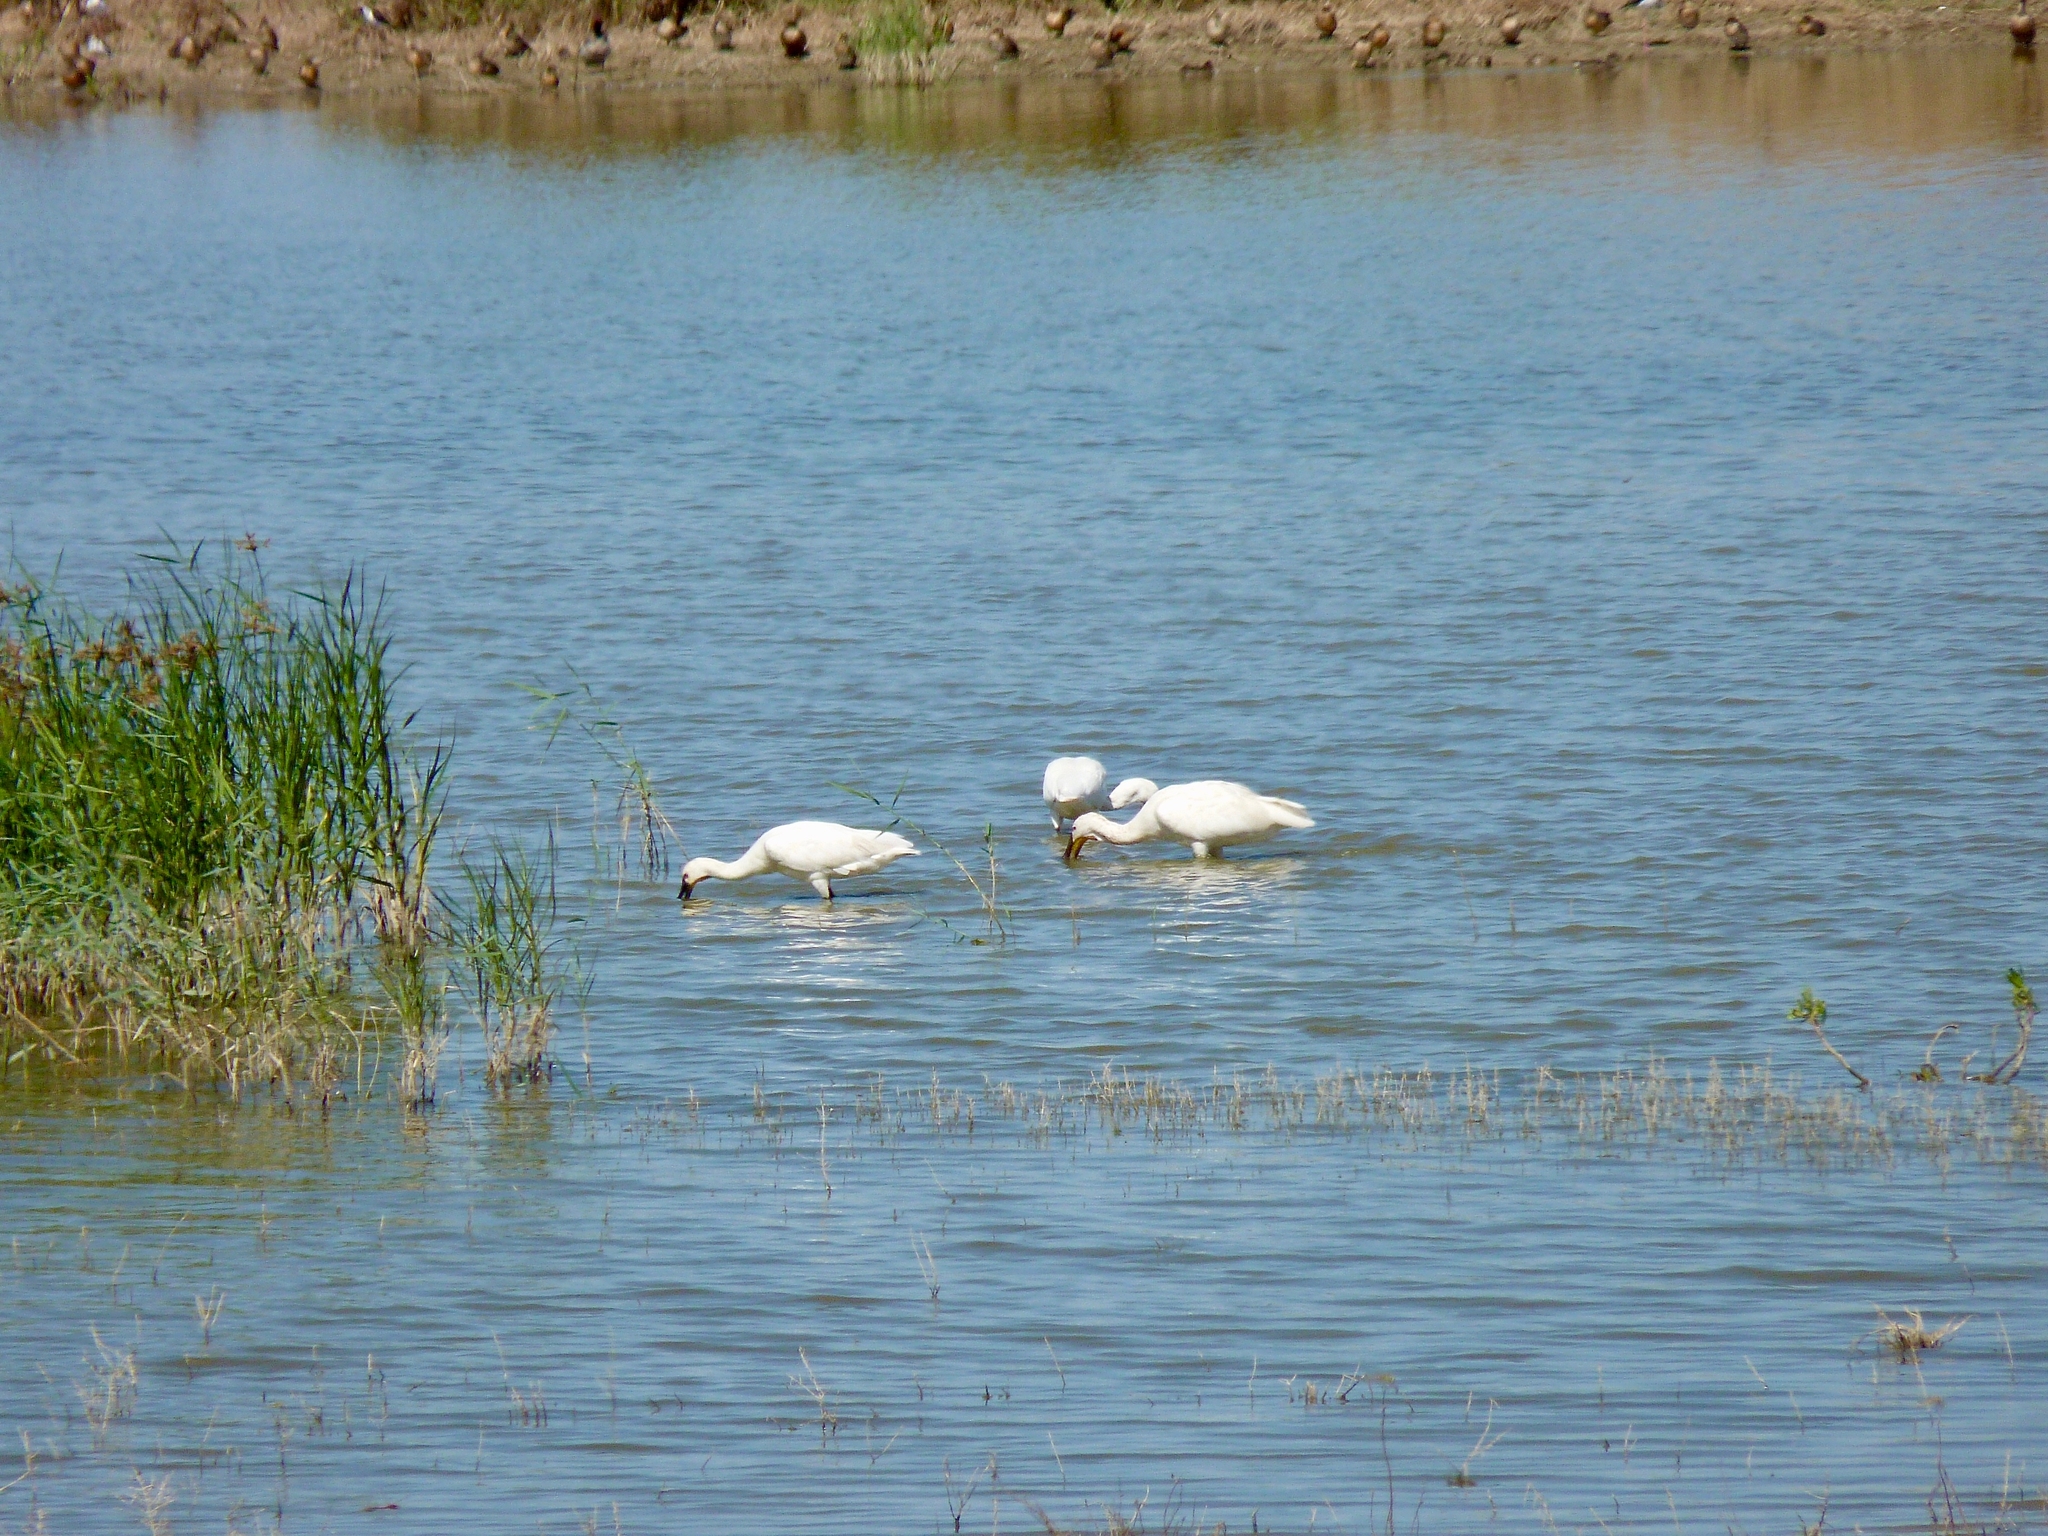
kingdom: Animalia
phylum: Chordata
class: Aves
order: Pelecaniformes
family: Threskiornithidae
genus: Platalea
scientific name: Platalea leucorodia
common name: Eurasian spoonbill
